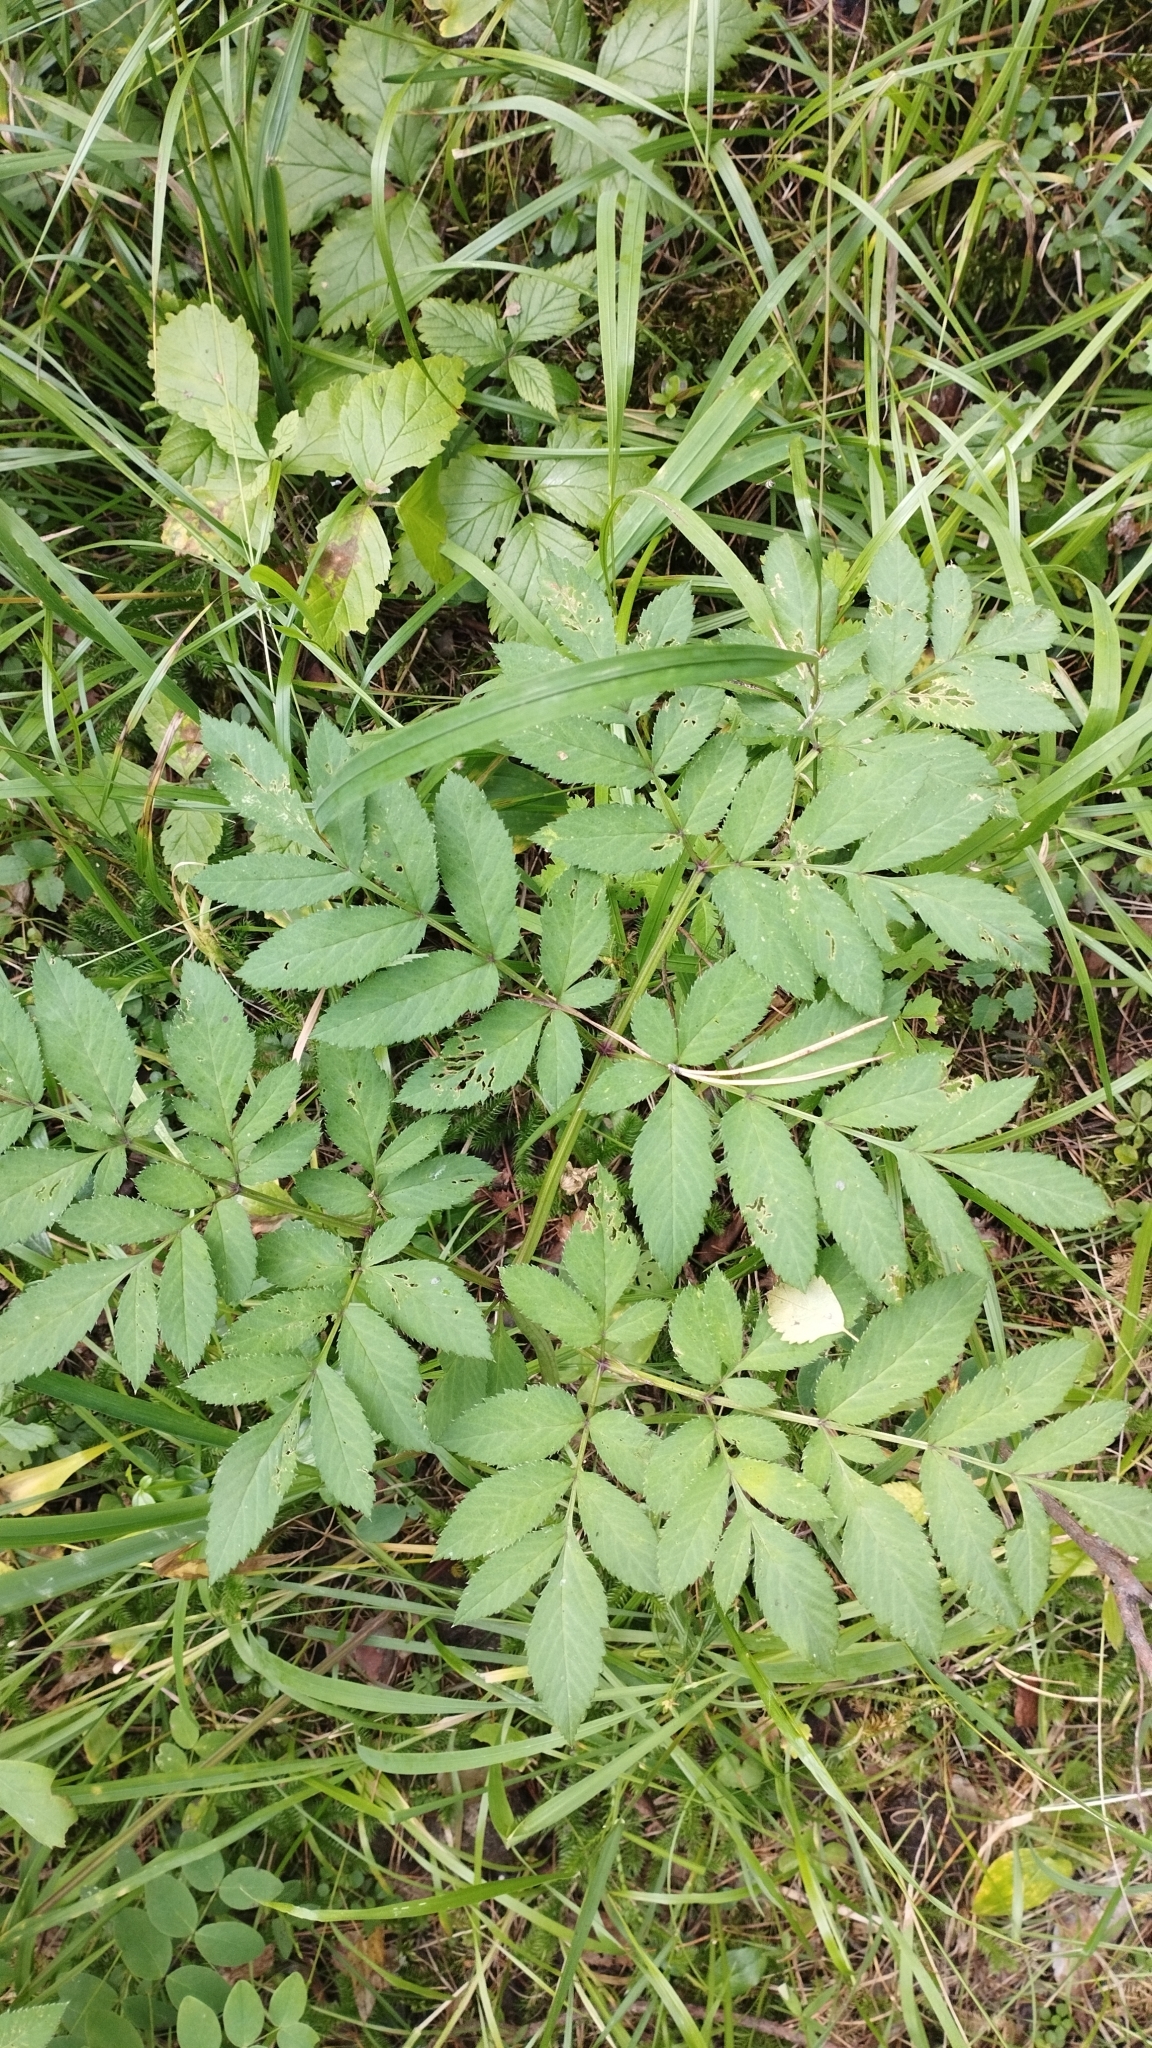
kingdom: Plantae
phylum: Tracheophyta
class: Magnoliopsida
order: Apiales
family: Apiaceae
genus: Angelica
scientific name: Angelica sylvestris
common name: Wild angelica
